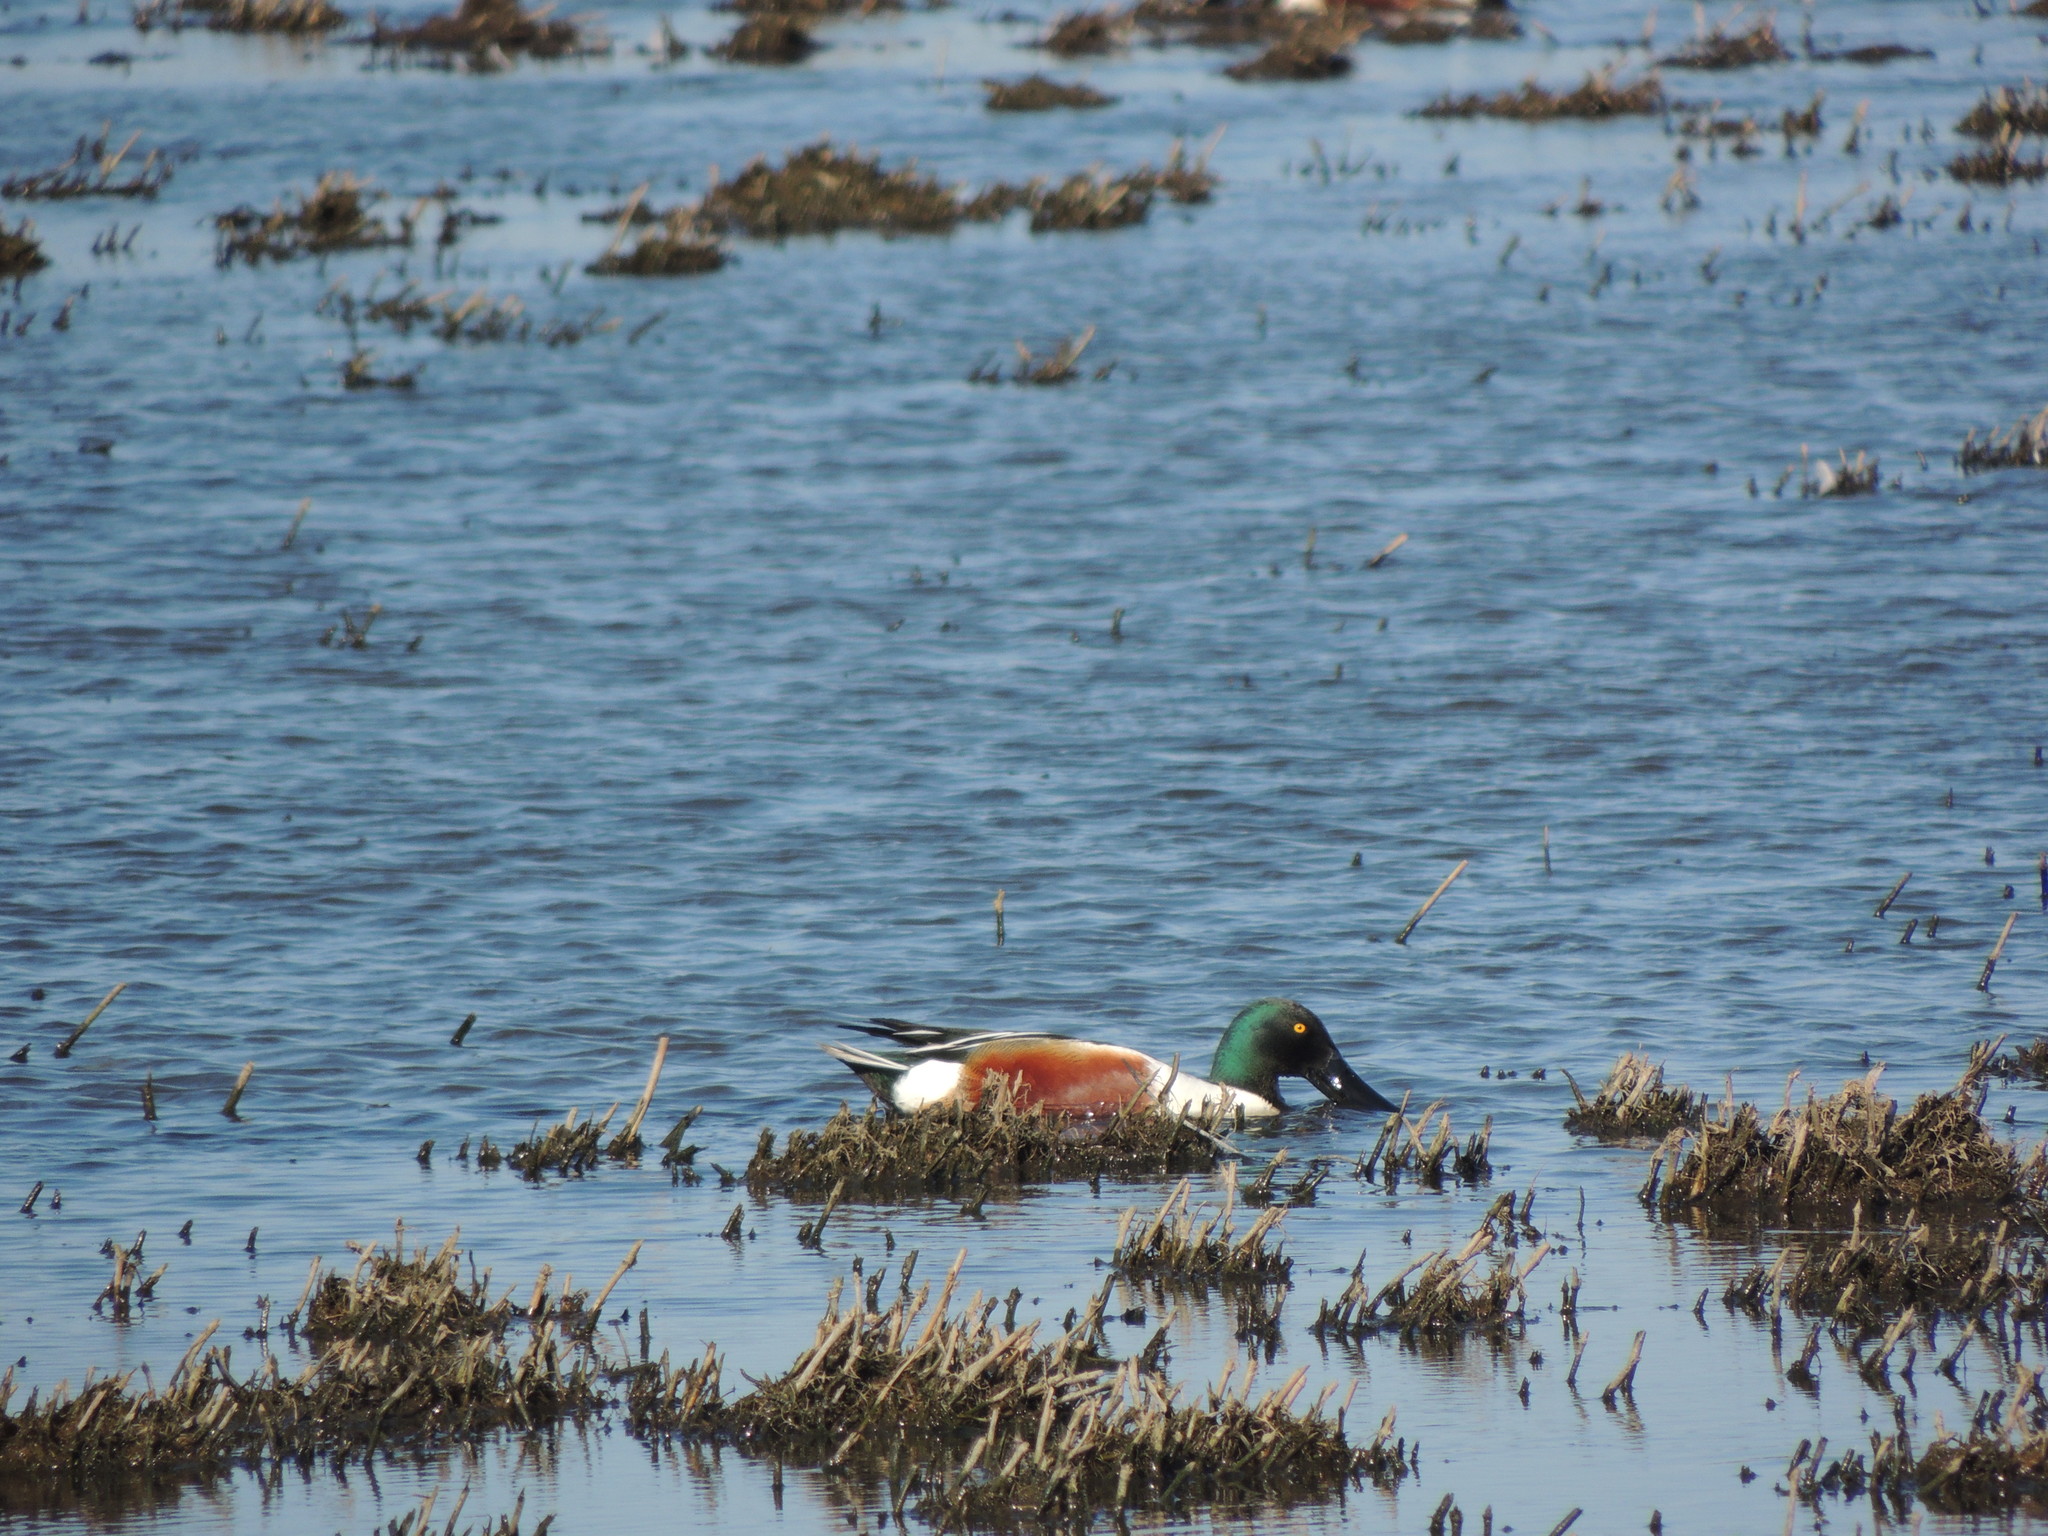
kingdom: Animalia
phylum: Chordata
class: Aves
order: Anseriformes
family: Anatidae
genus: Spatula
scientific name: Spatula clypeata
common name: Northern shoveler
